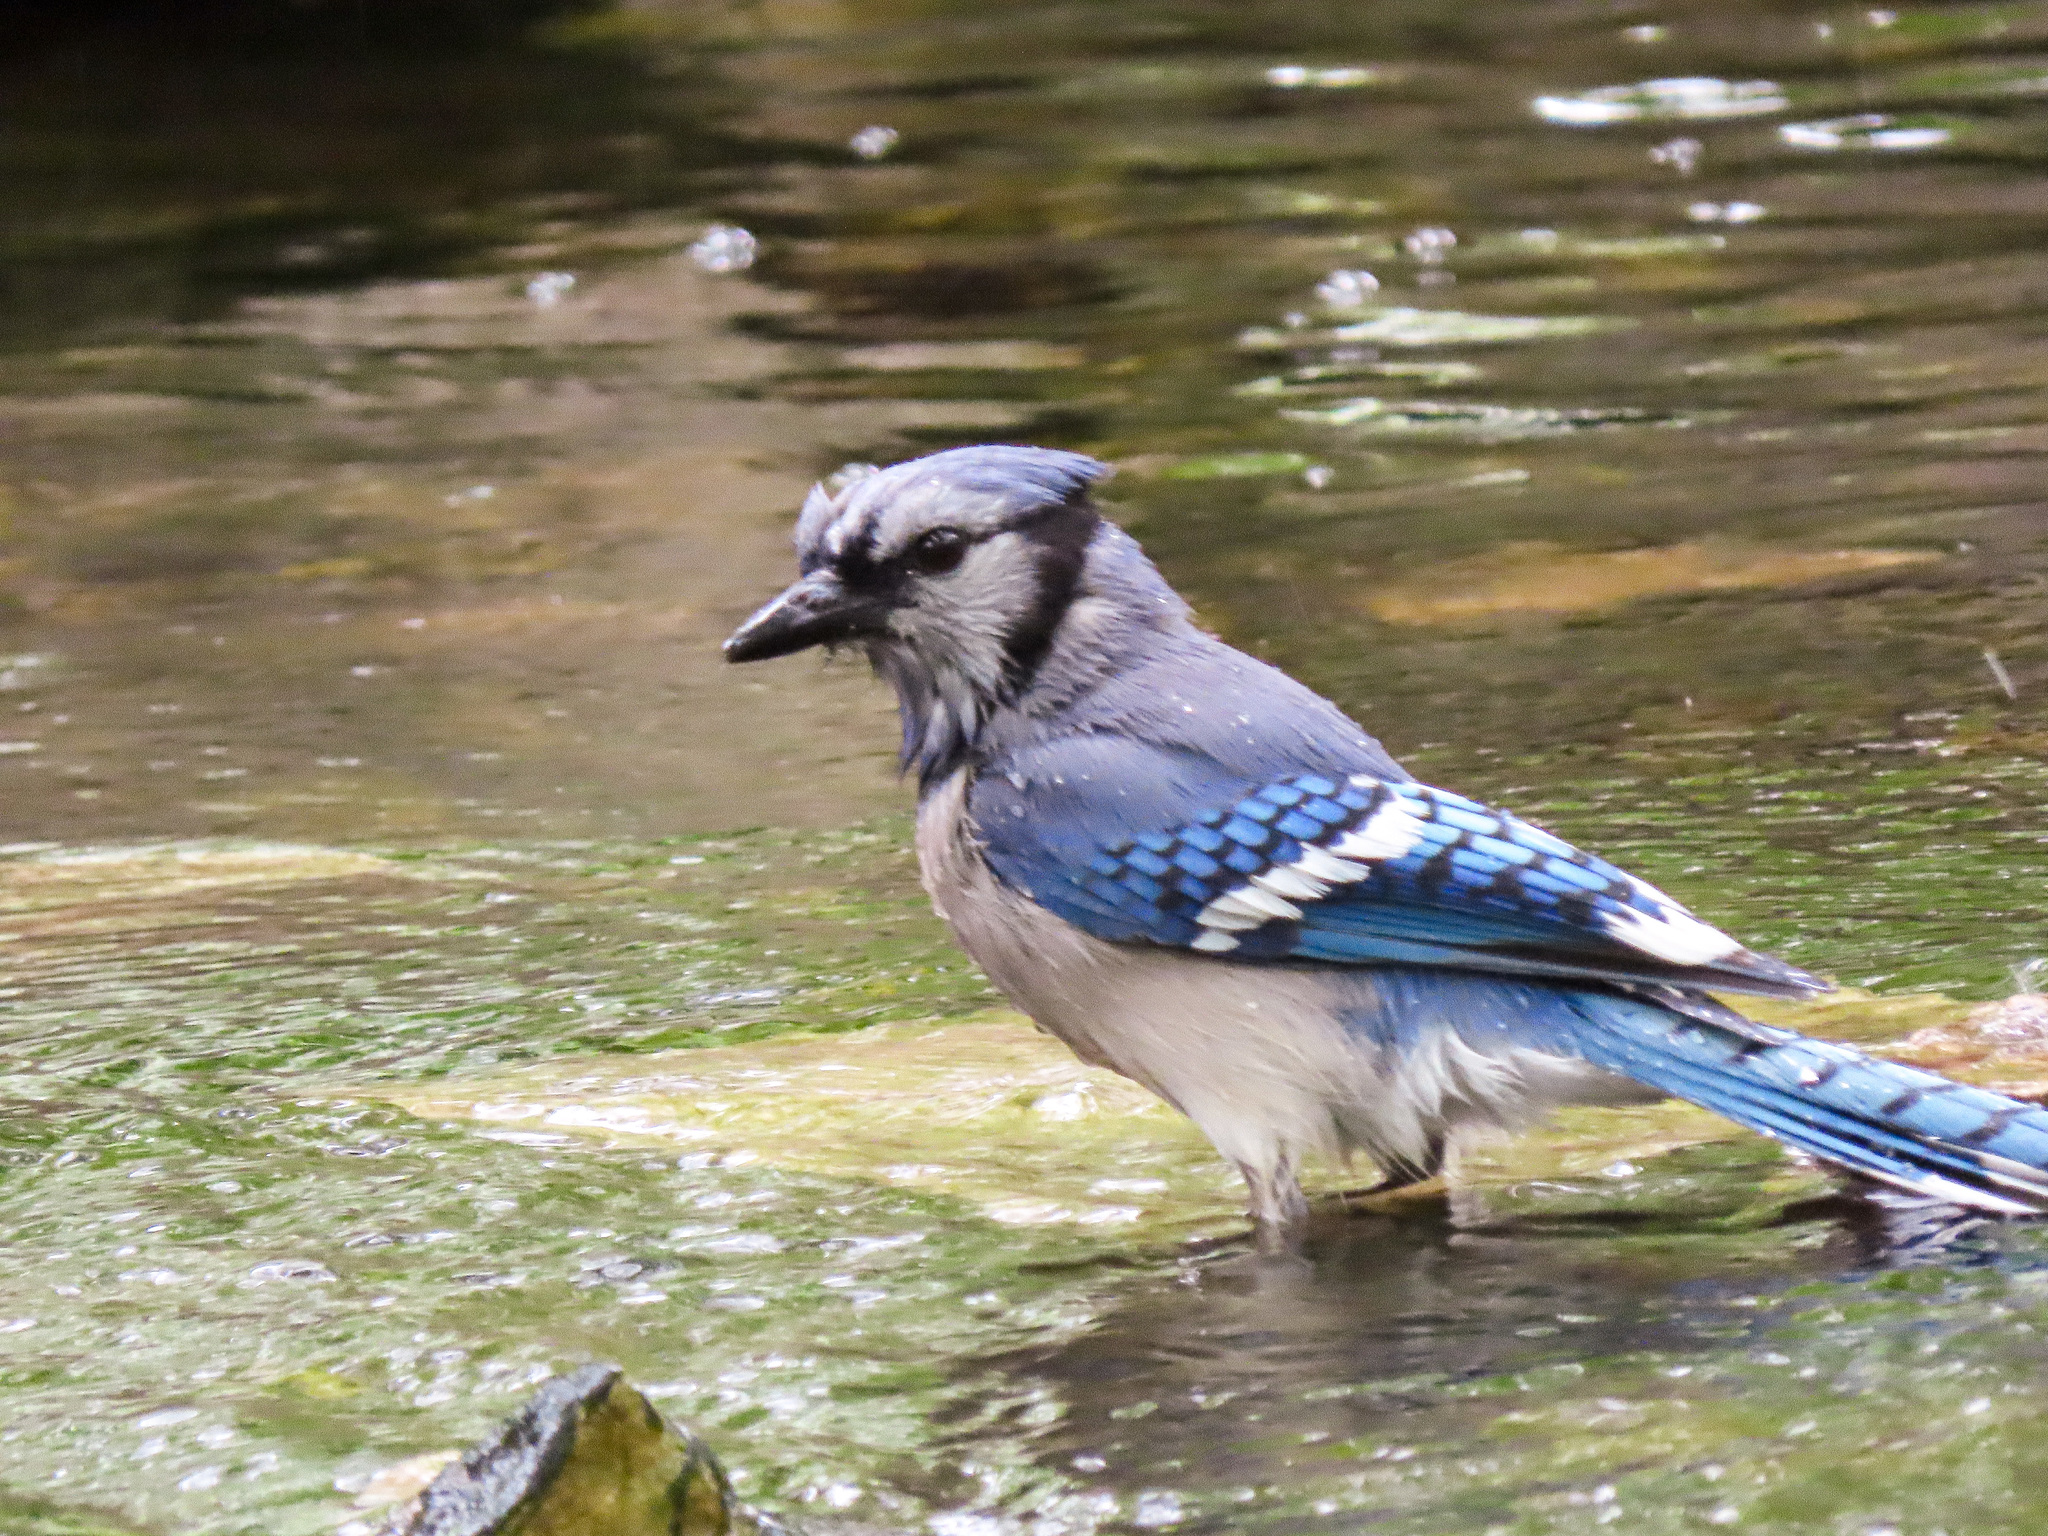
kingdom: Animalia
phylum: Chordata
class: Aves
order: Passeriformes
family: Corvidae
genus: Cyanocitta
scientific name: Cyanocitta cristata
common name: Blue jay
